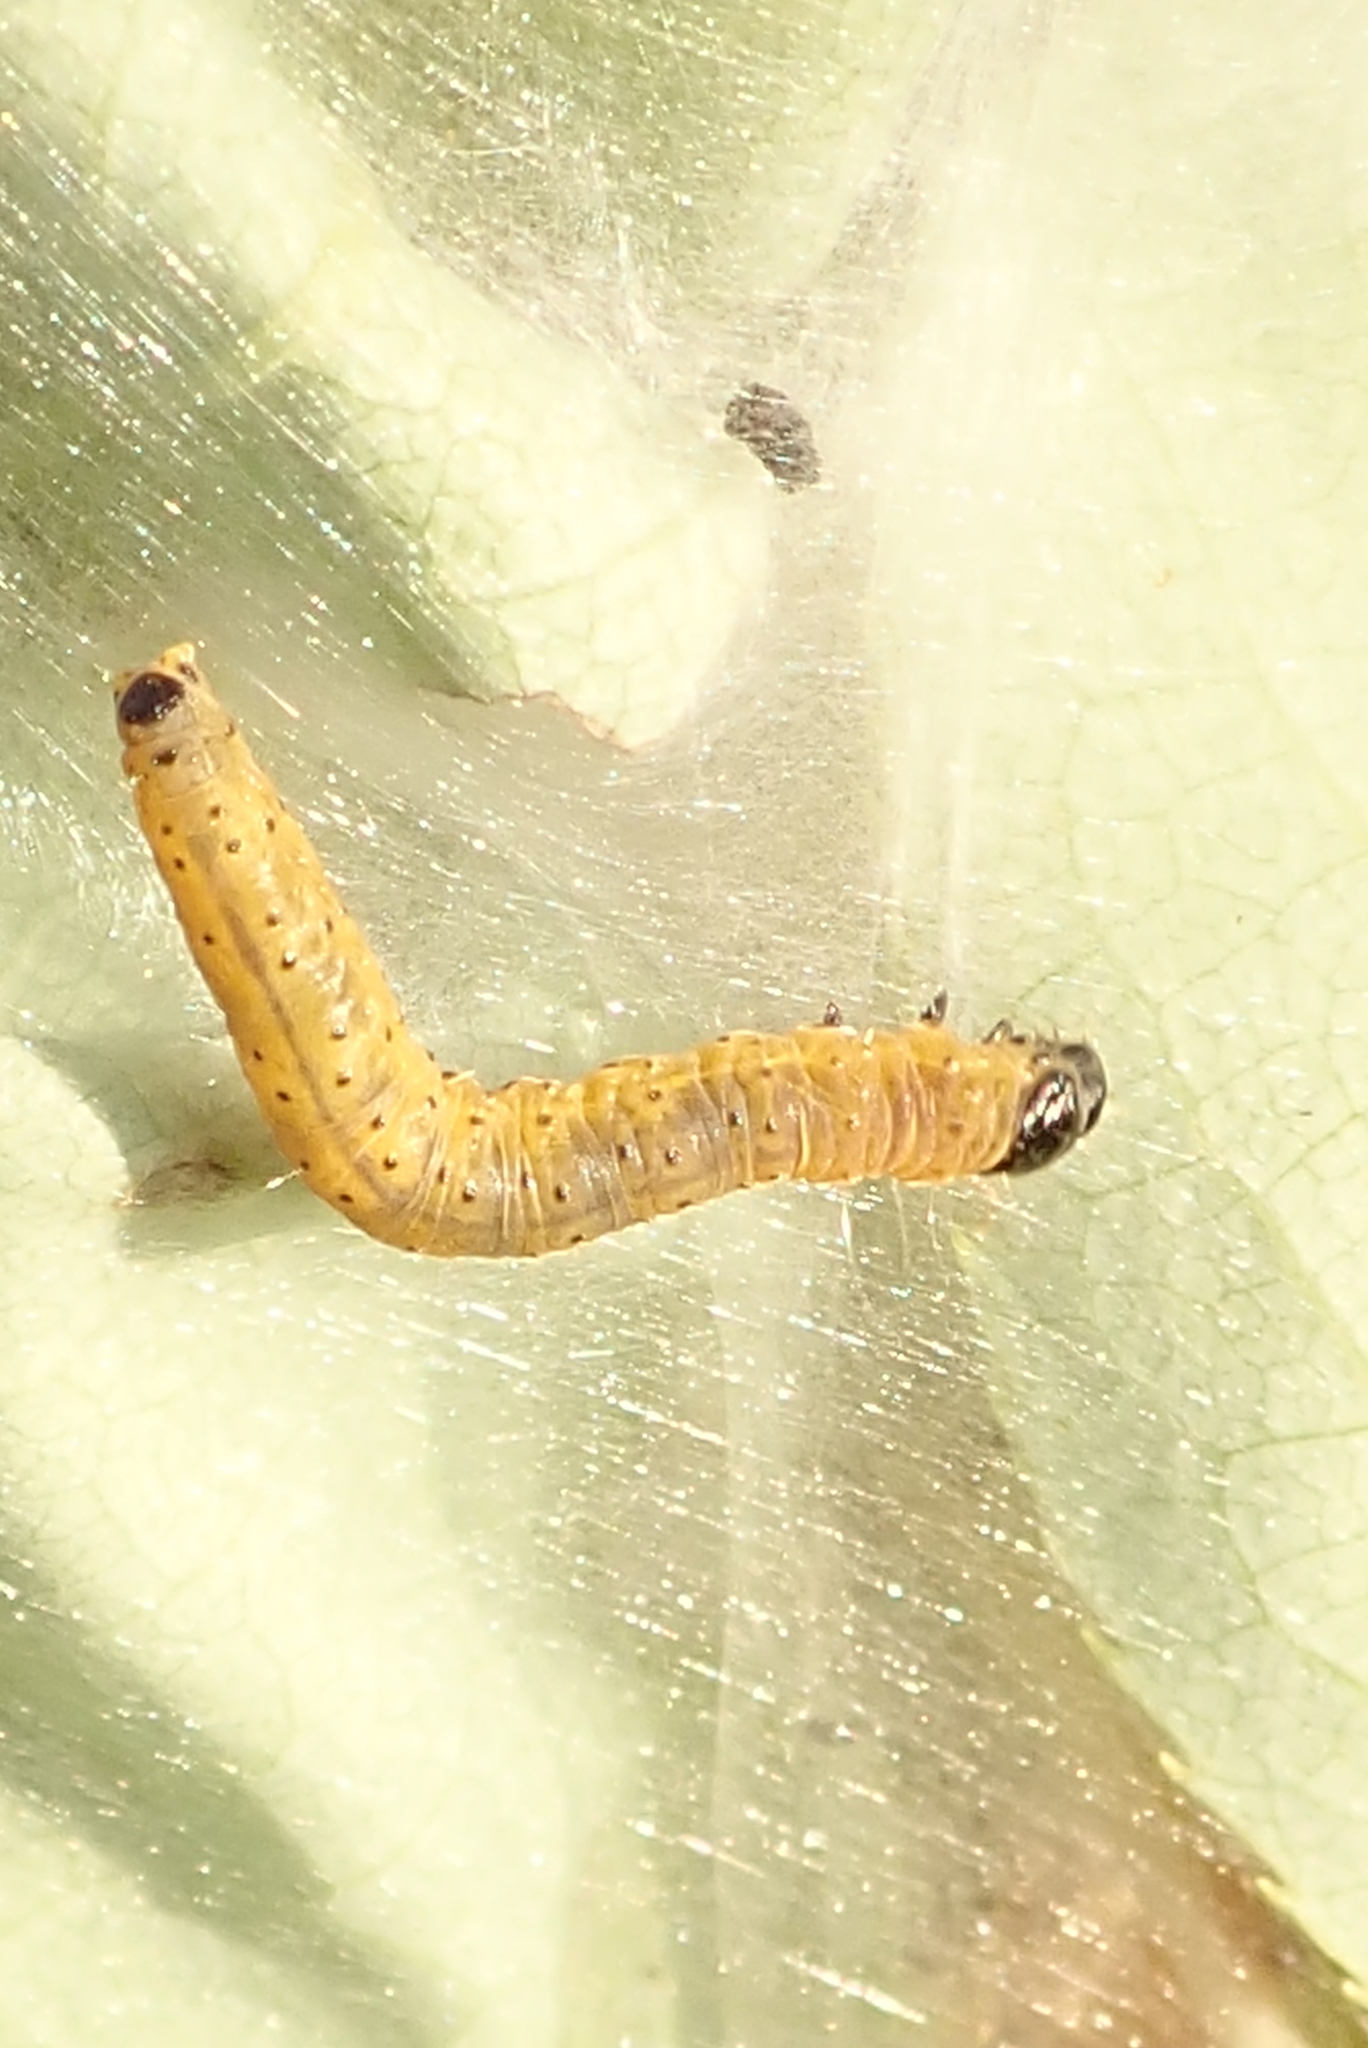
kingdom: Animalia
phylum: Arthropoda
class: Insecta
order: Lepidoptera
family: Tortricidae
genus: Archips
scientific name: Archips cerasivorana
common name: Uglynest caterpillar
